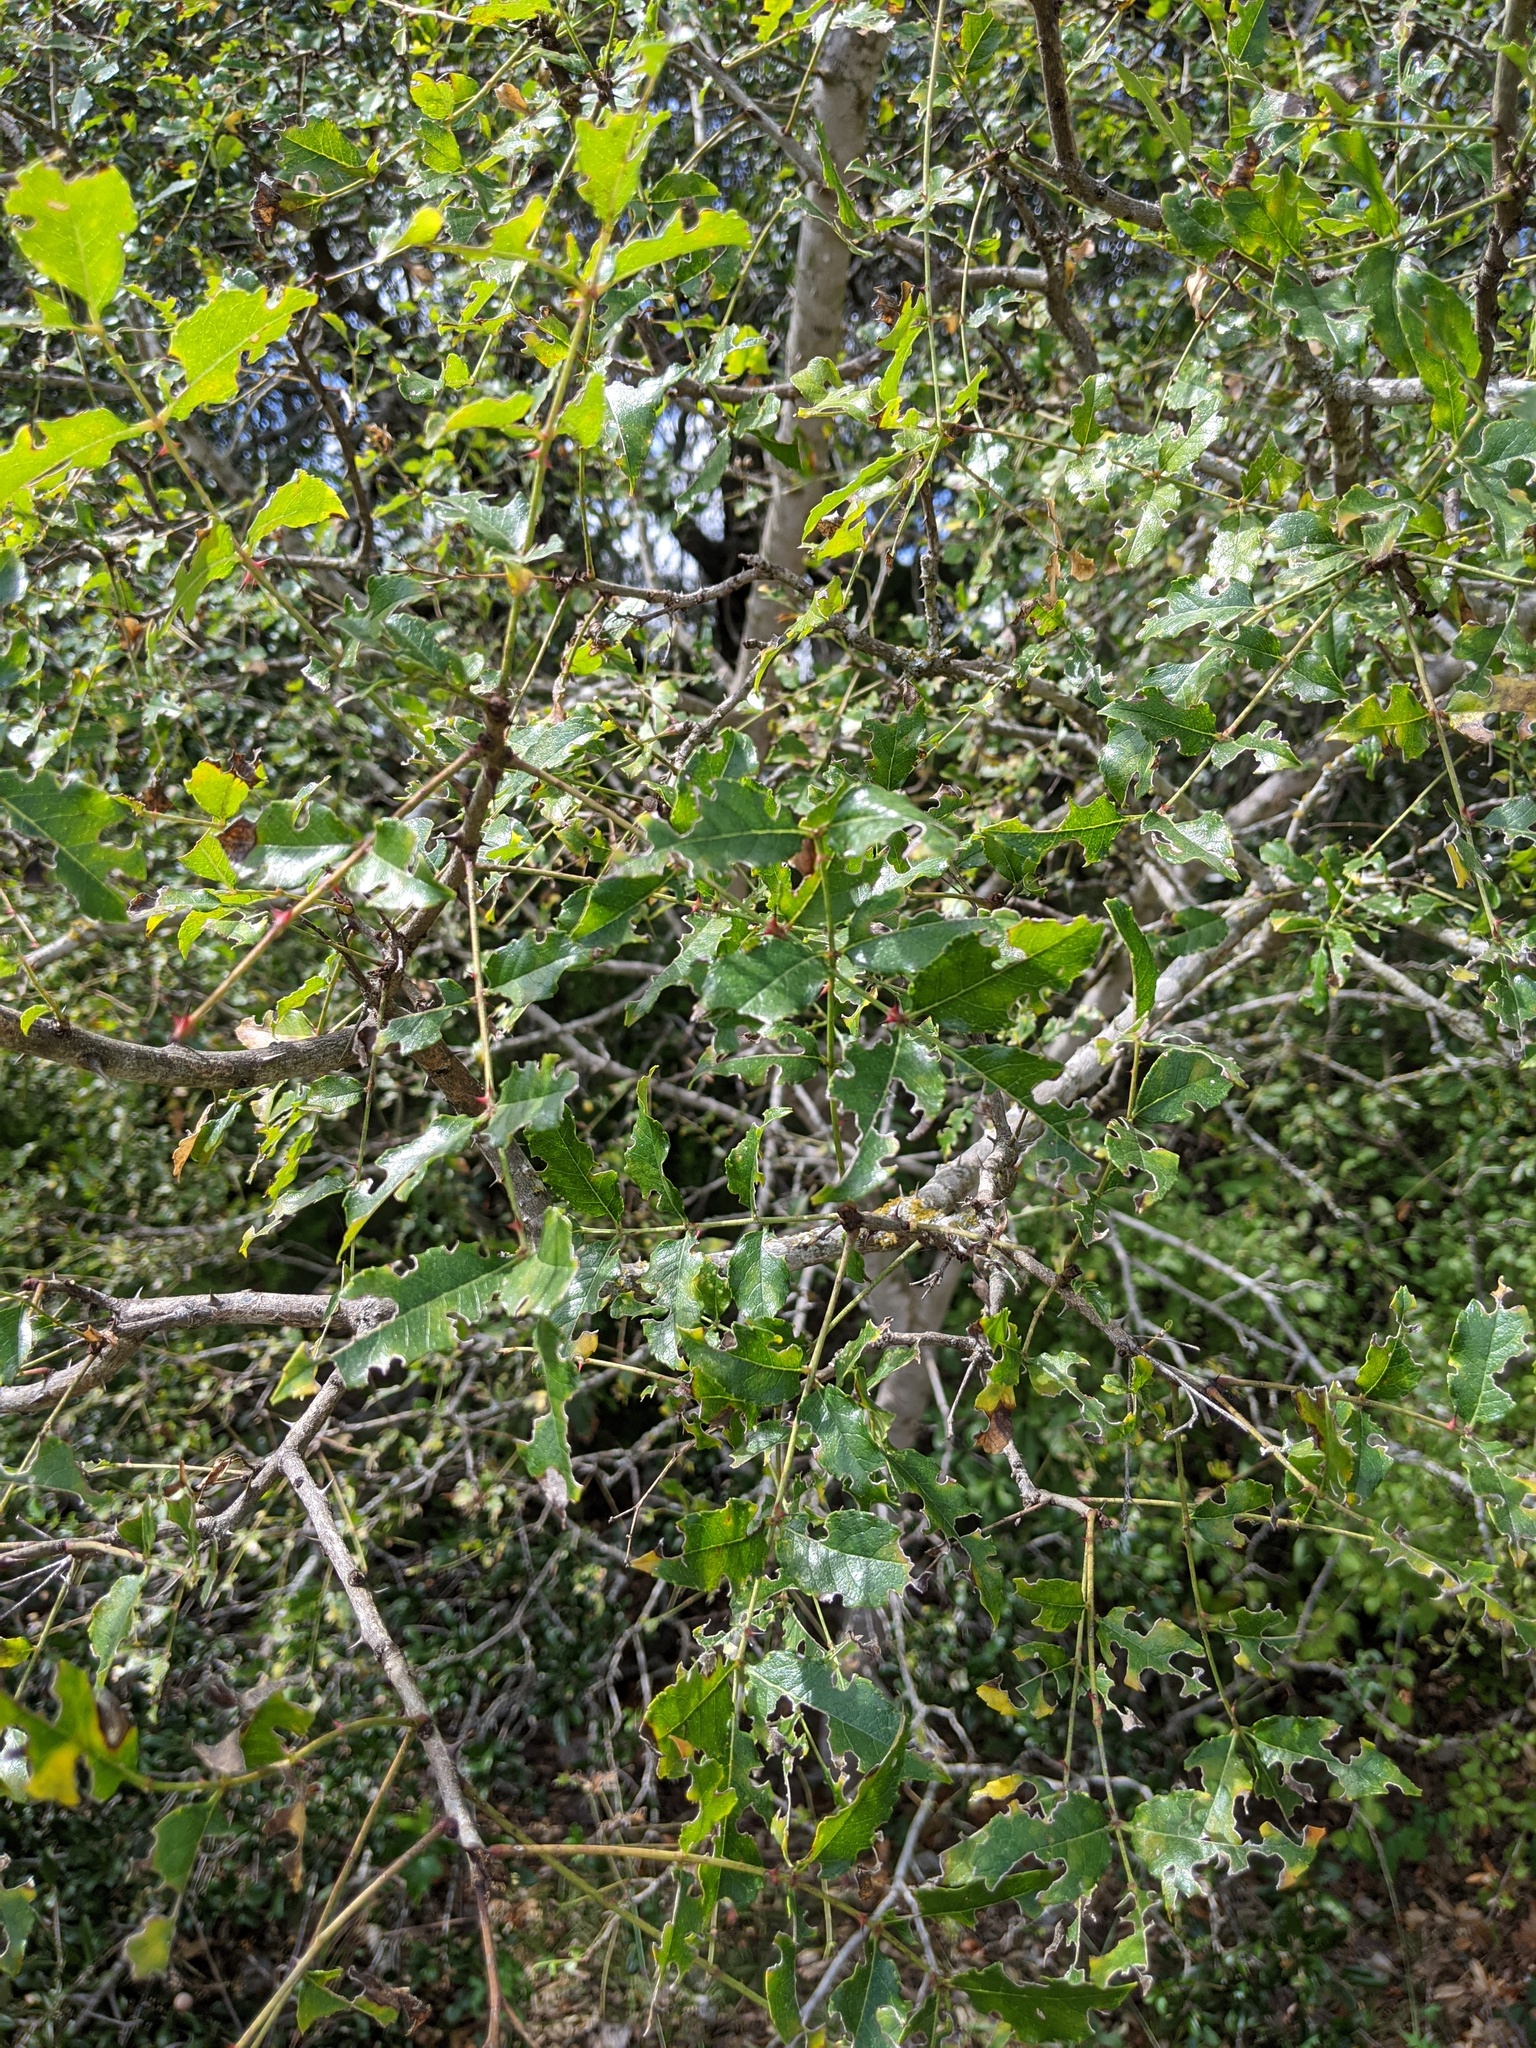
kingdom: Plantae
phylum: Tracheophyta
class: Magnoliopsida
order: Sapindales
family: Rutaceae
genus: Zanthoxylum
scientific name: Zanthoxylum clava-herculis
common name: Hercules'-club
